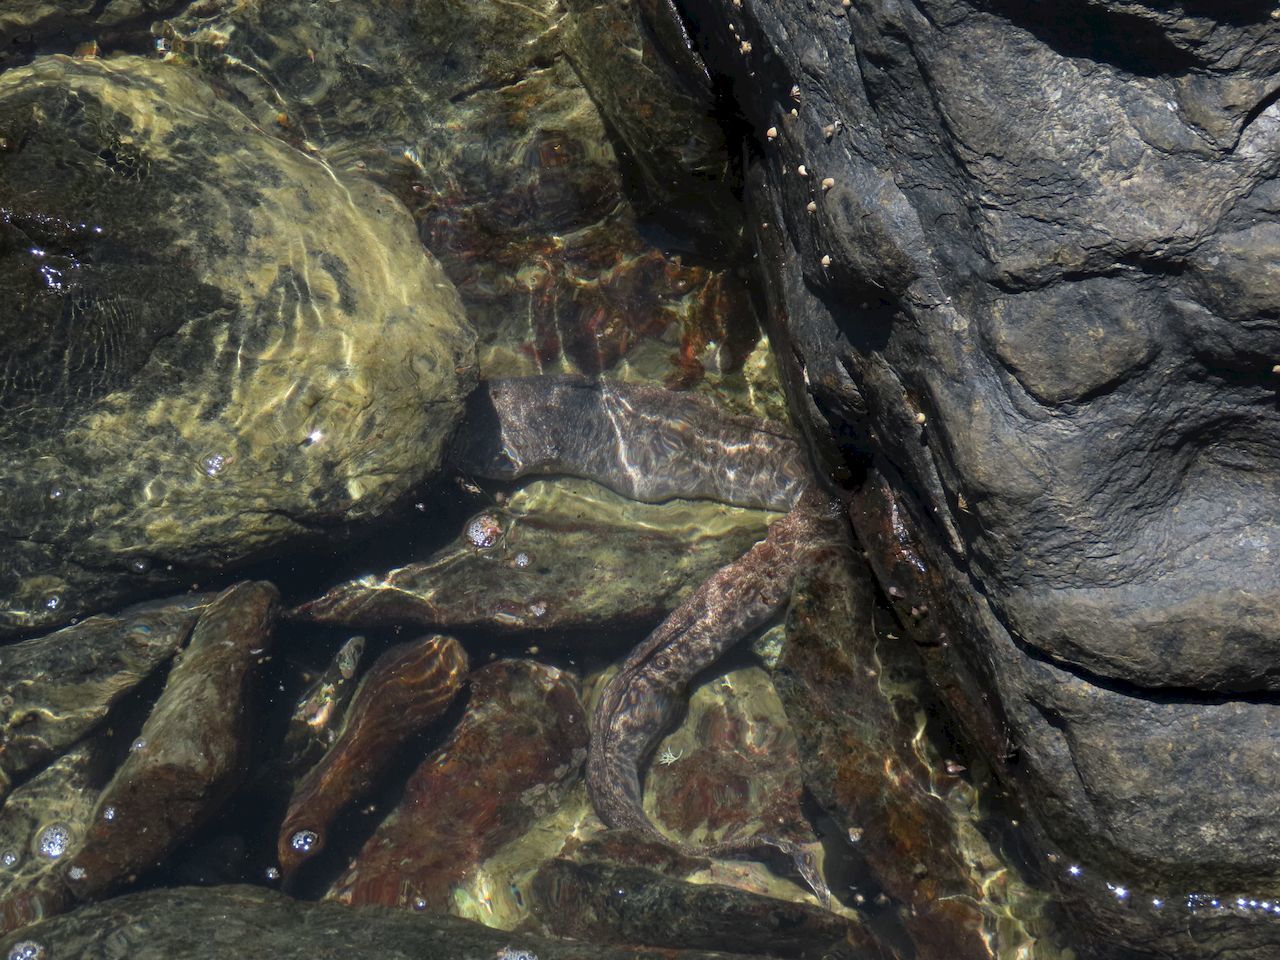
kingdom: Animalia
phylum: Chordata
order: Anguilliformes
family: Muraenidae
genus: Gymnothorax
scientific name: Gymnothorax pictus
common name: Peppered moray
